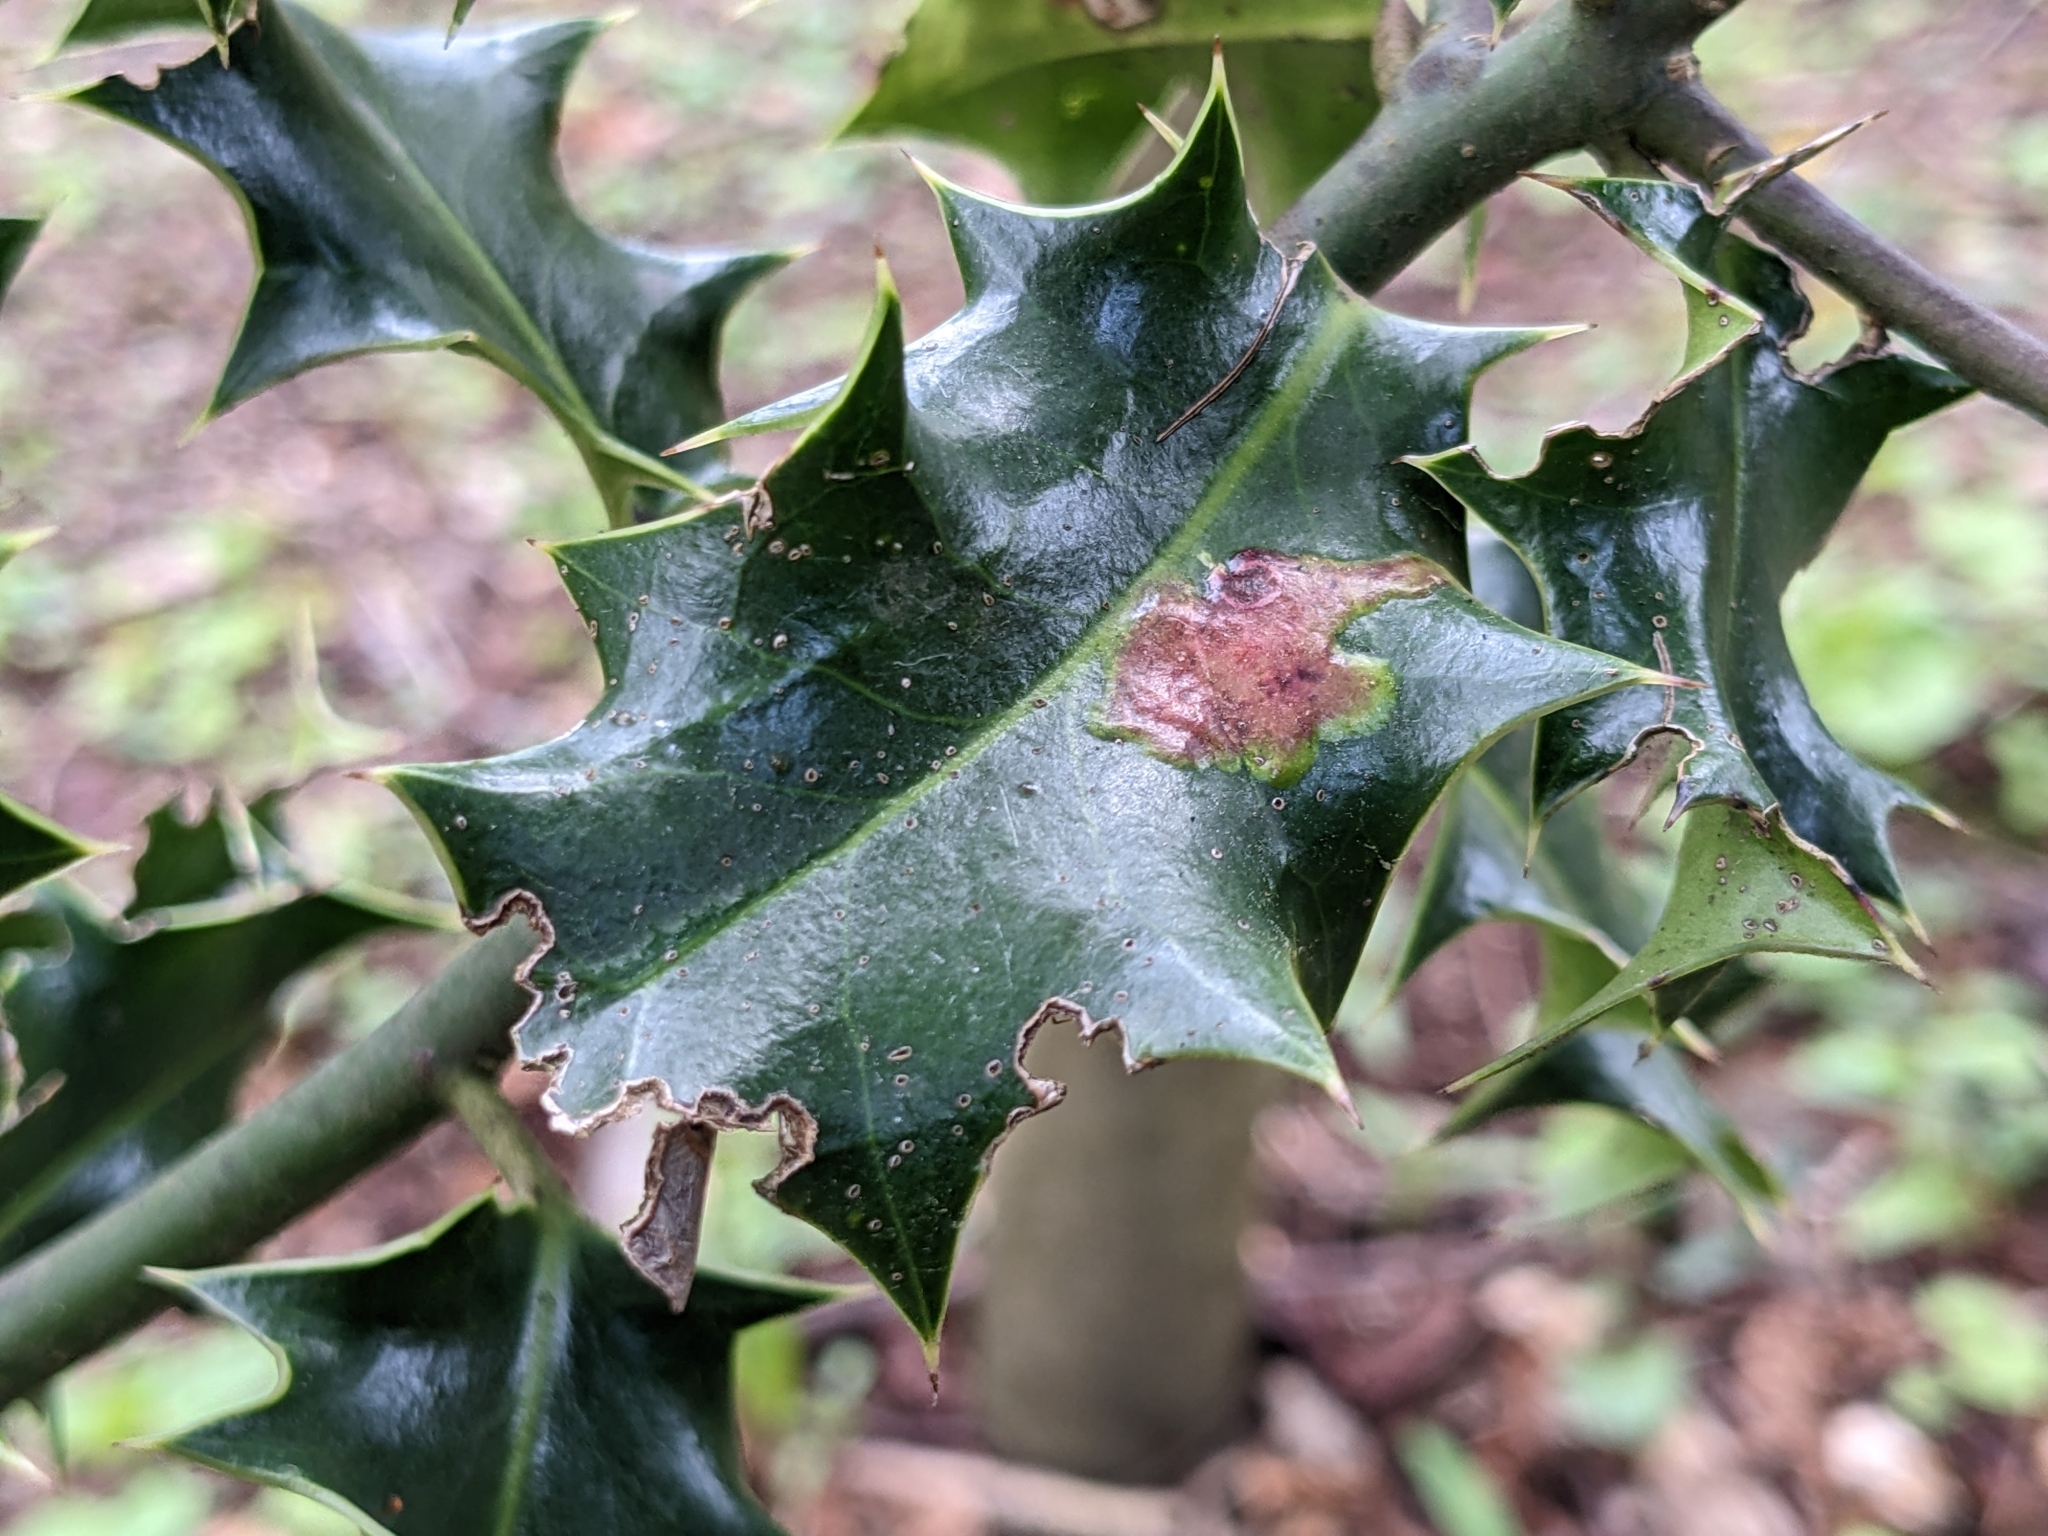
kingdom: Animalia
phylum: Arthropoda
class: Insecta
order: Diptera
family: Agromyzidae
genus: Phytomyza
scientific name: Phytomyza ilicis
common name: Holly leafminer
